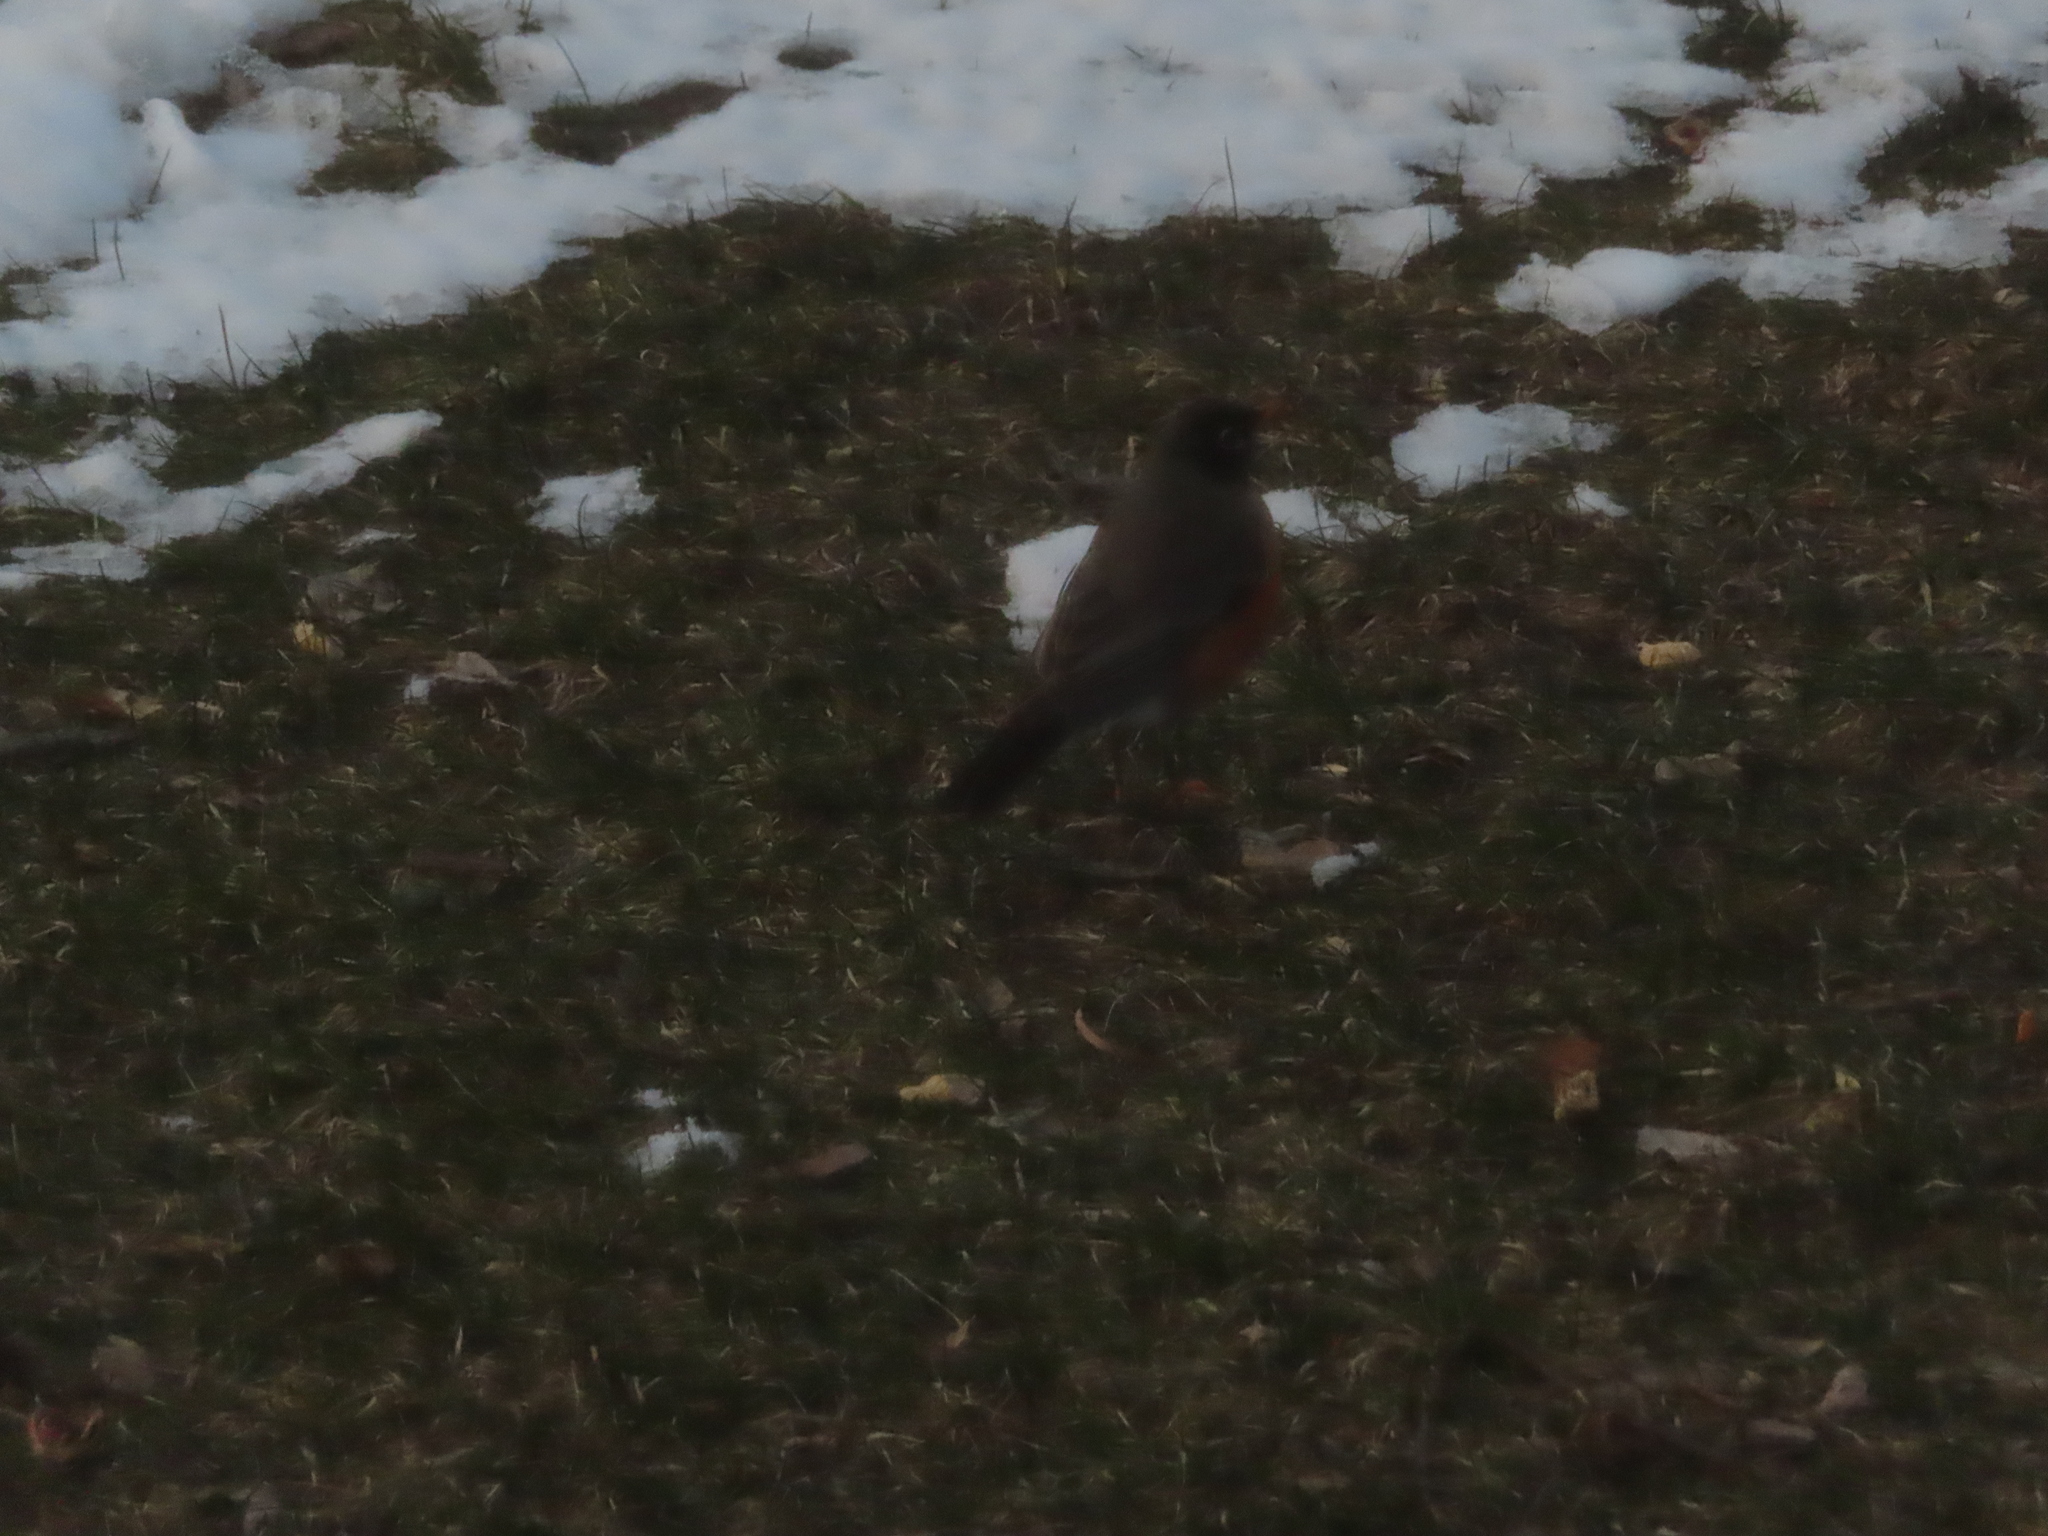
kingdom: Animalia
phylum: Chordata
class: Aves
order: Passeriformes
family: Turdidae
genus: Turdus
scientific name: Turdus migratorius
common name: American robin
